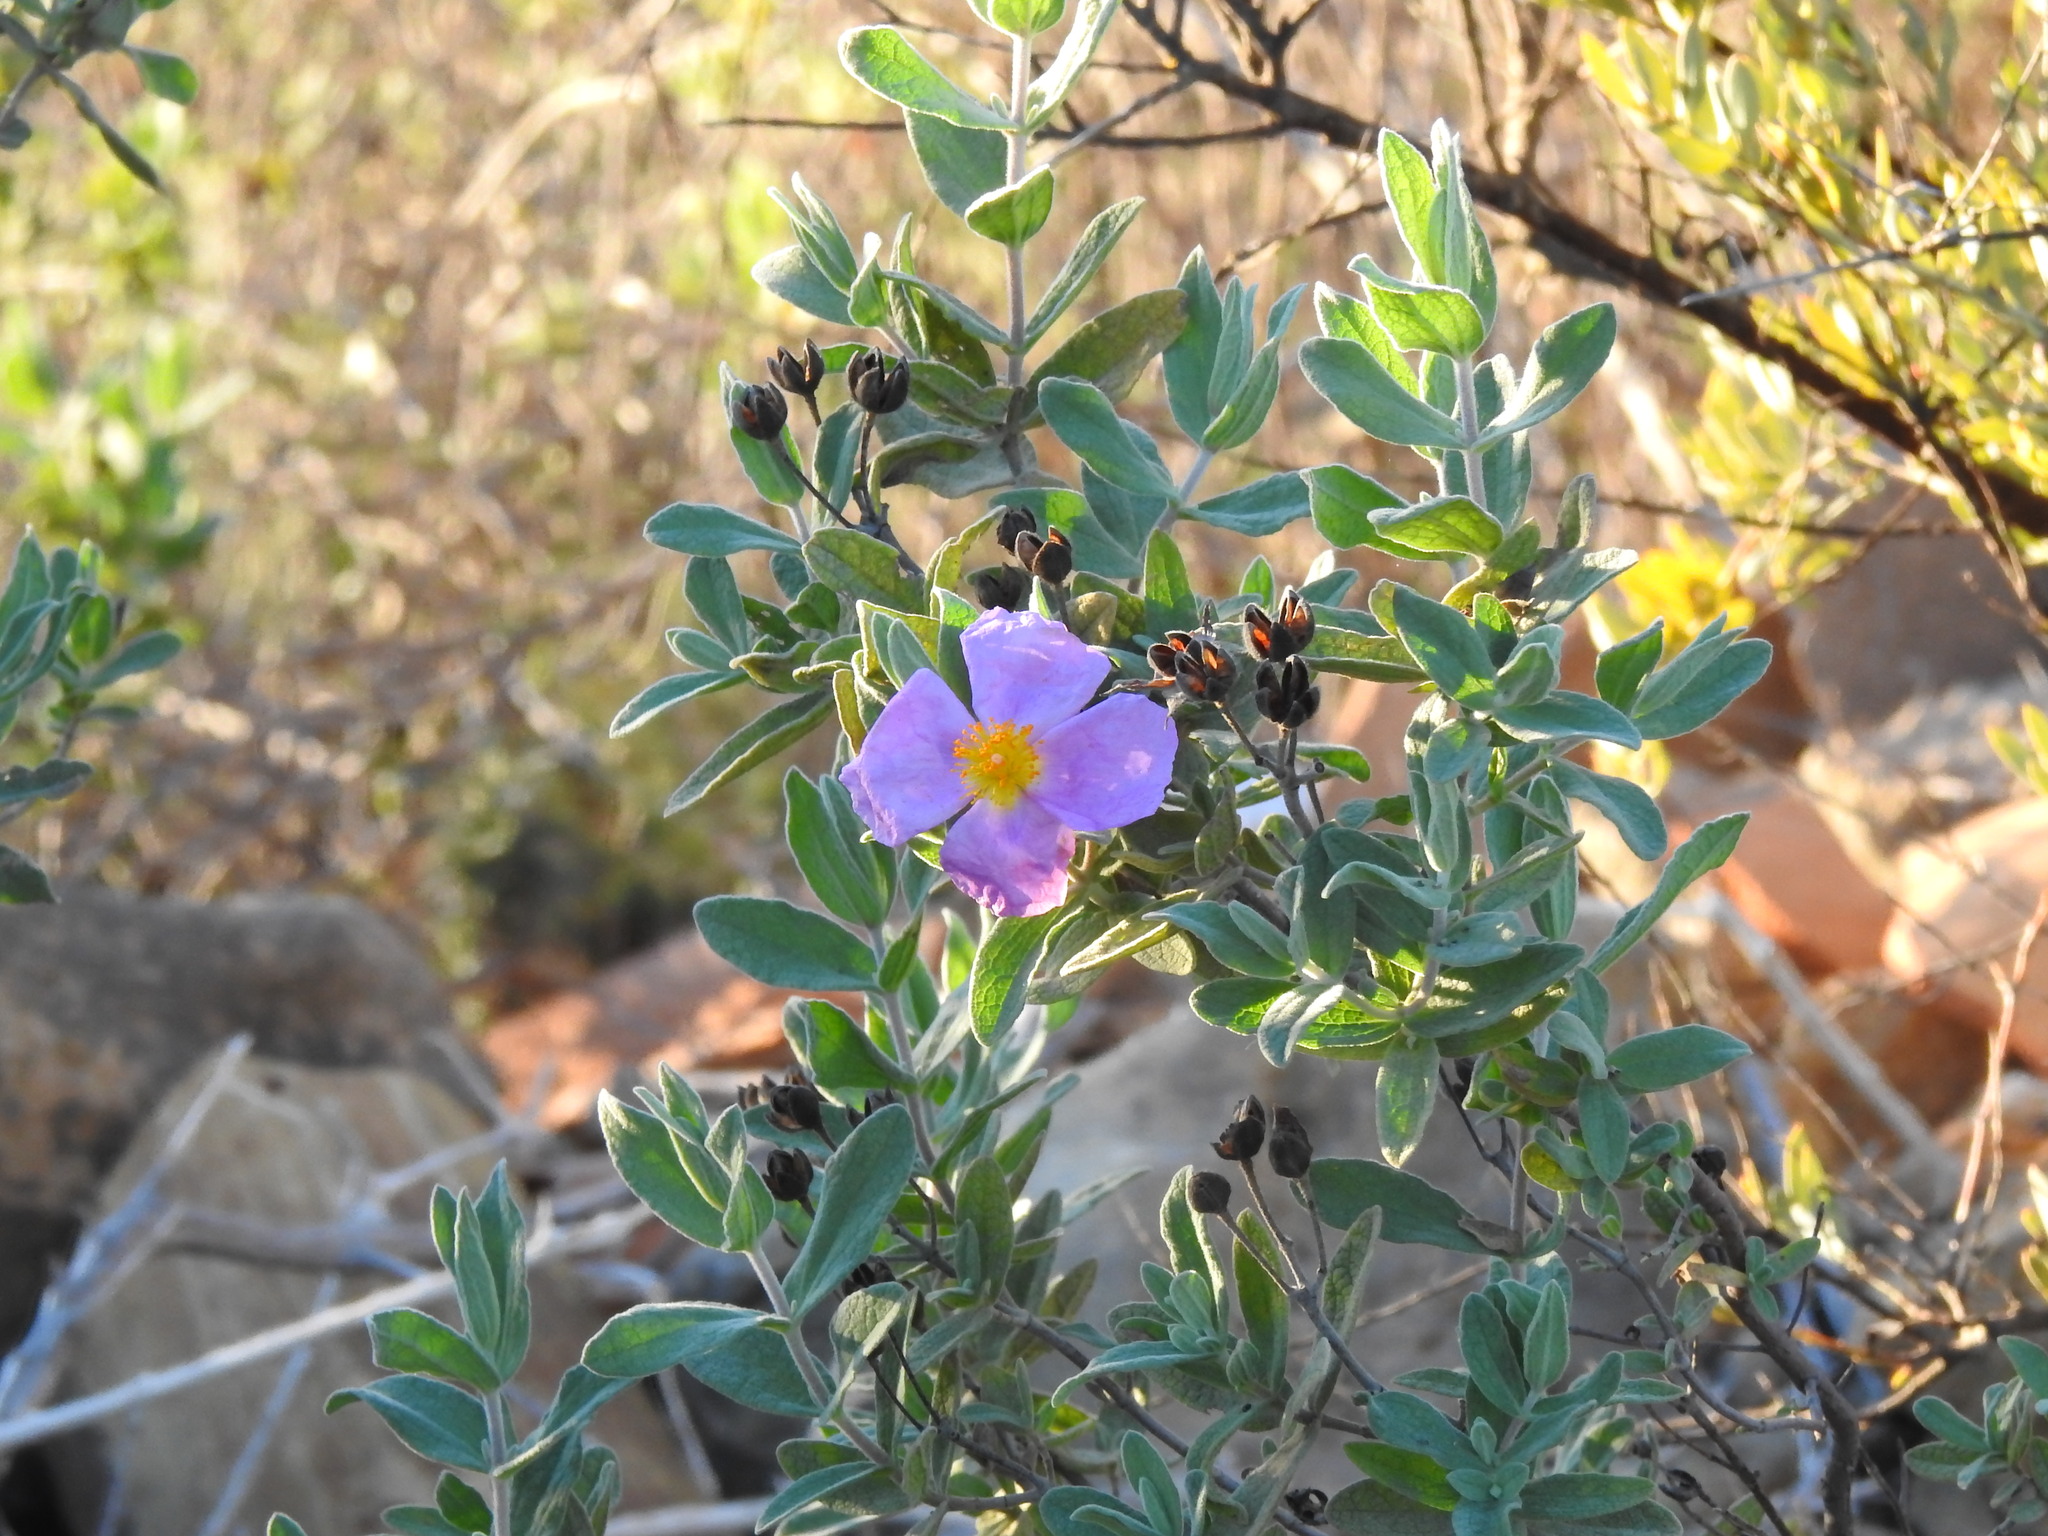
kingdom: Plantae
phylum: Tracheophyta
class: Magnoliopsida
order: Malvales
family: Cistaceae
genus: Cistus
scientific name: Cistus albidus
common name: White-leaf rock-rose
